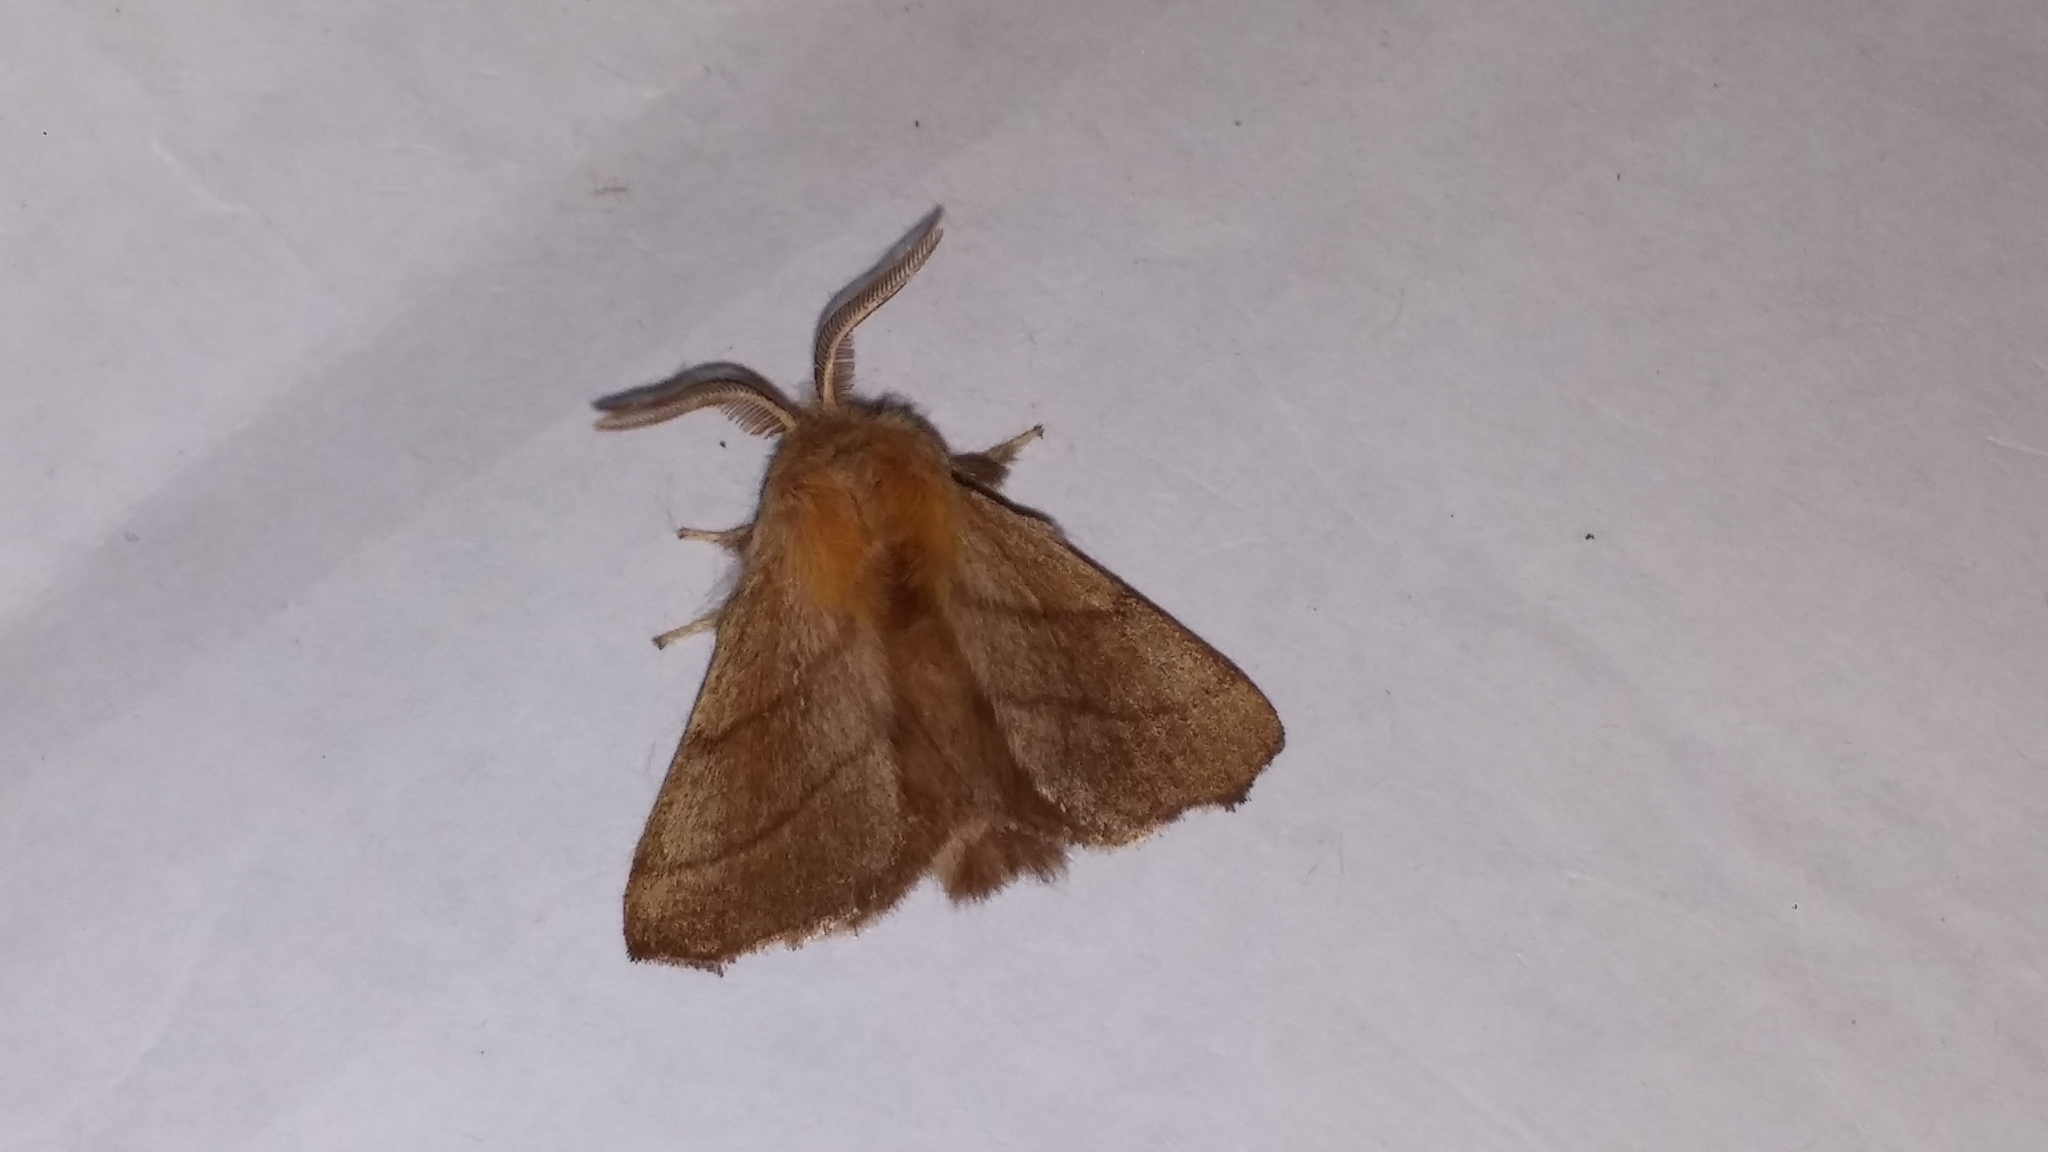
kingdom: Animalia
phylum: Arthropoda
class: Insecta
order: Lepidoptera
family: Lasiocampidae
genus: Malacosoma
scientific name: Malacosoma disstria
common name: Forest tent caterpillar
